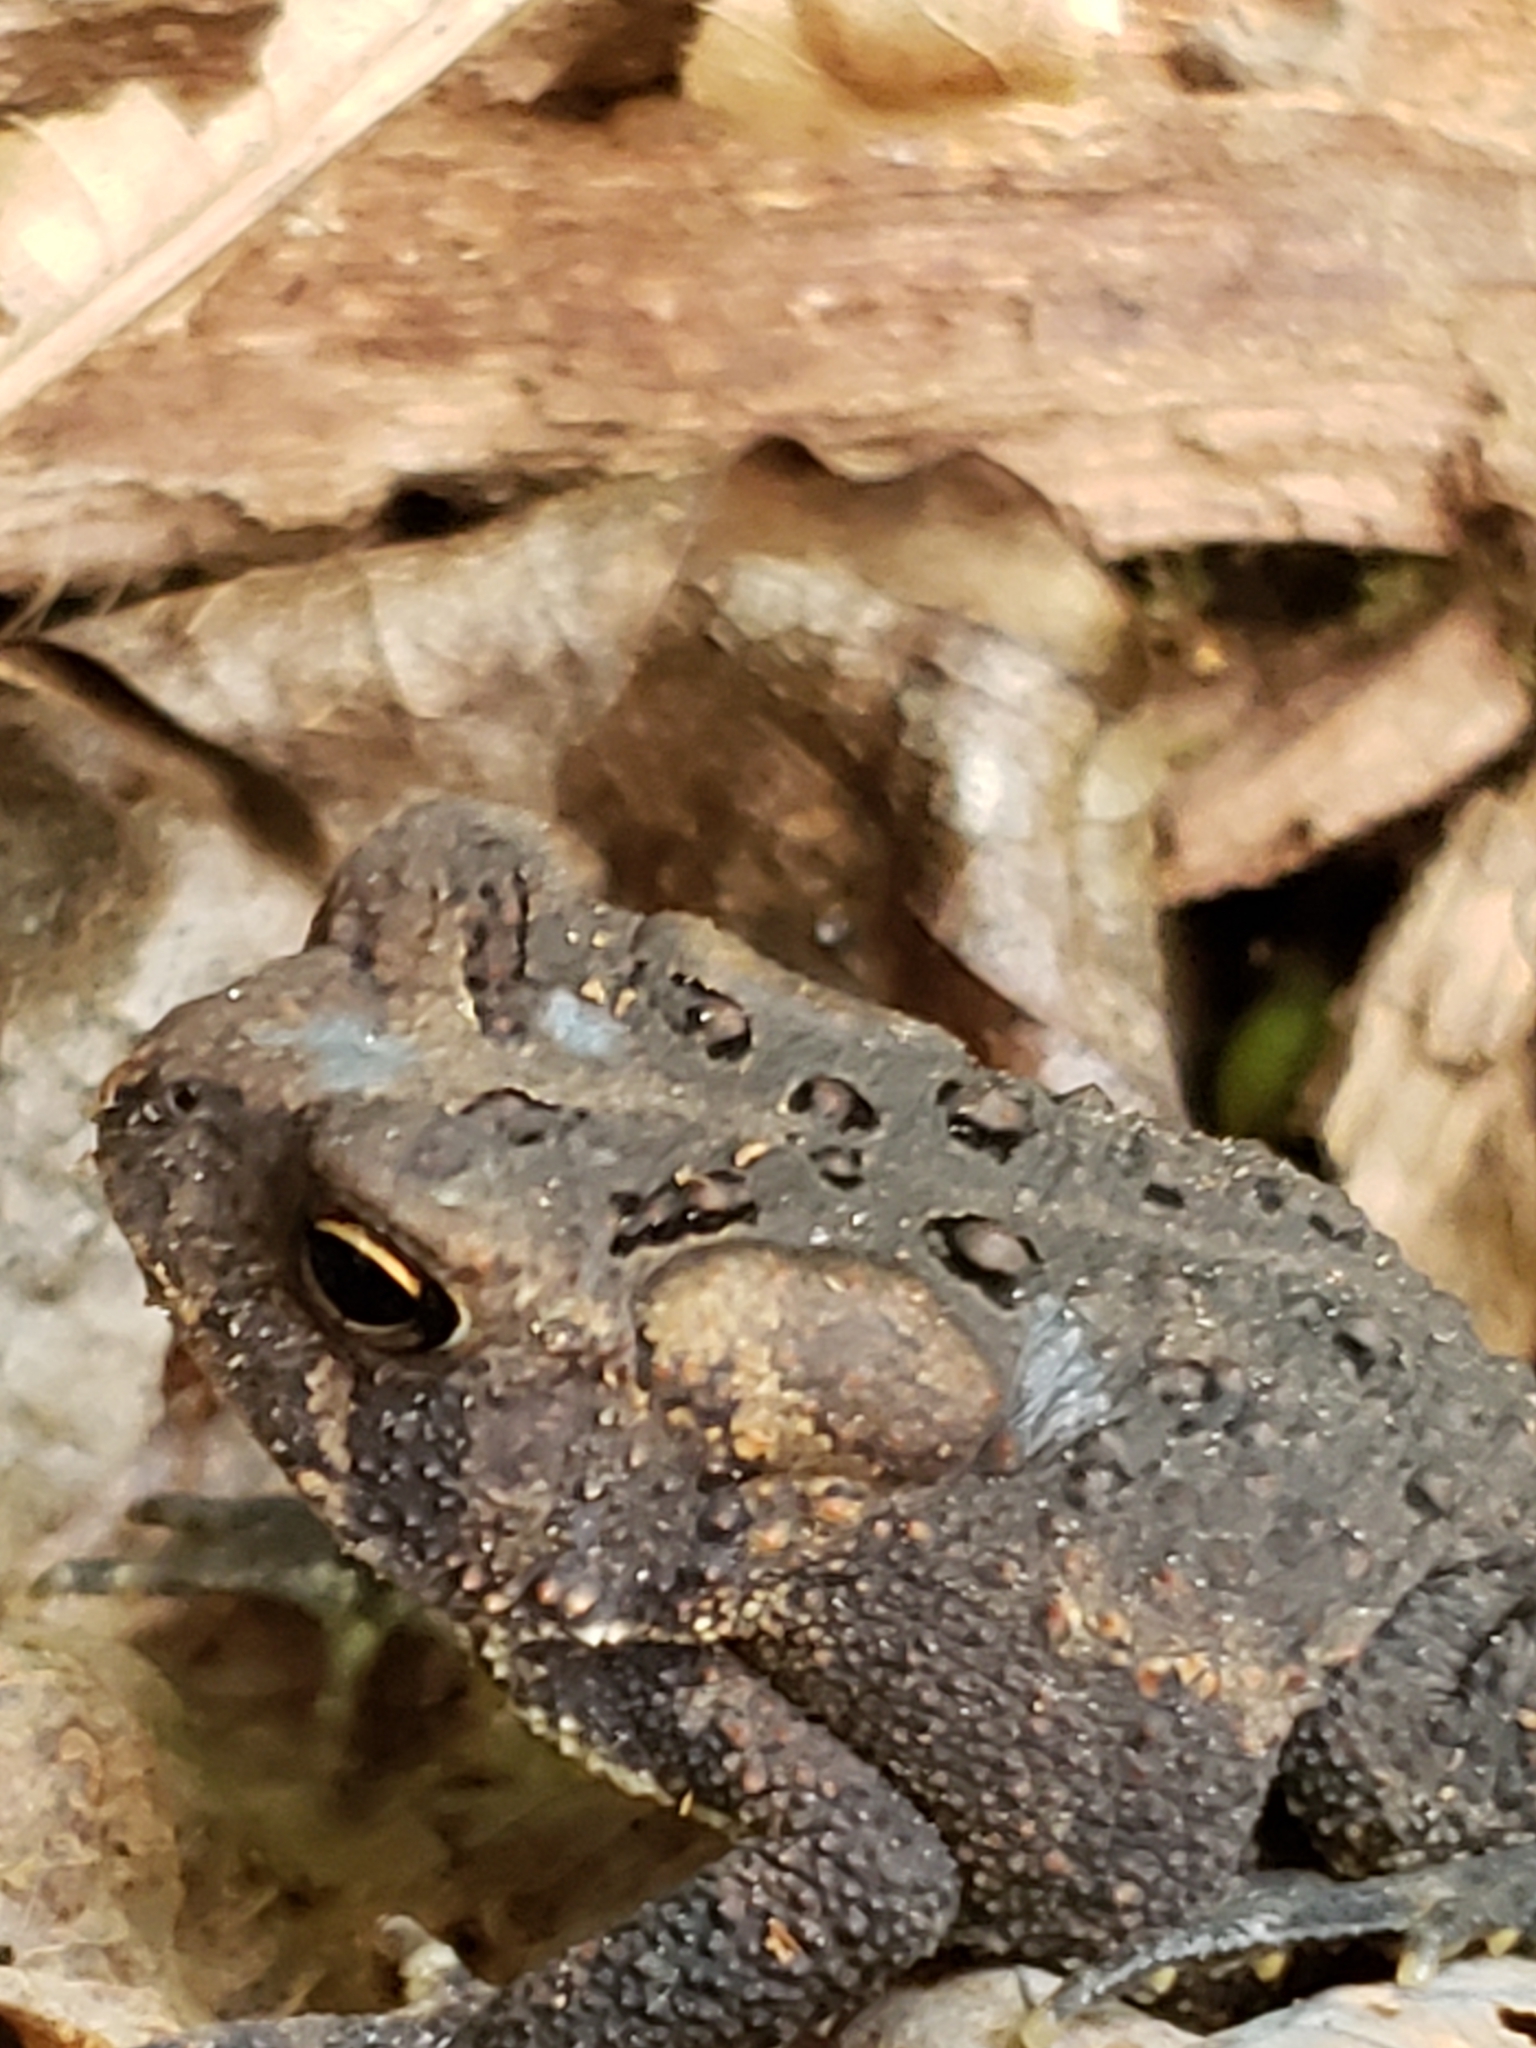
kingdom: Animalia
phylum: Chordata
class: Amphibia
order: Anura
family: Bufonidae
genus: Anaxyrus
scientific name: Anaxyrus americanus
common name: American toad
